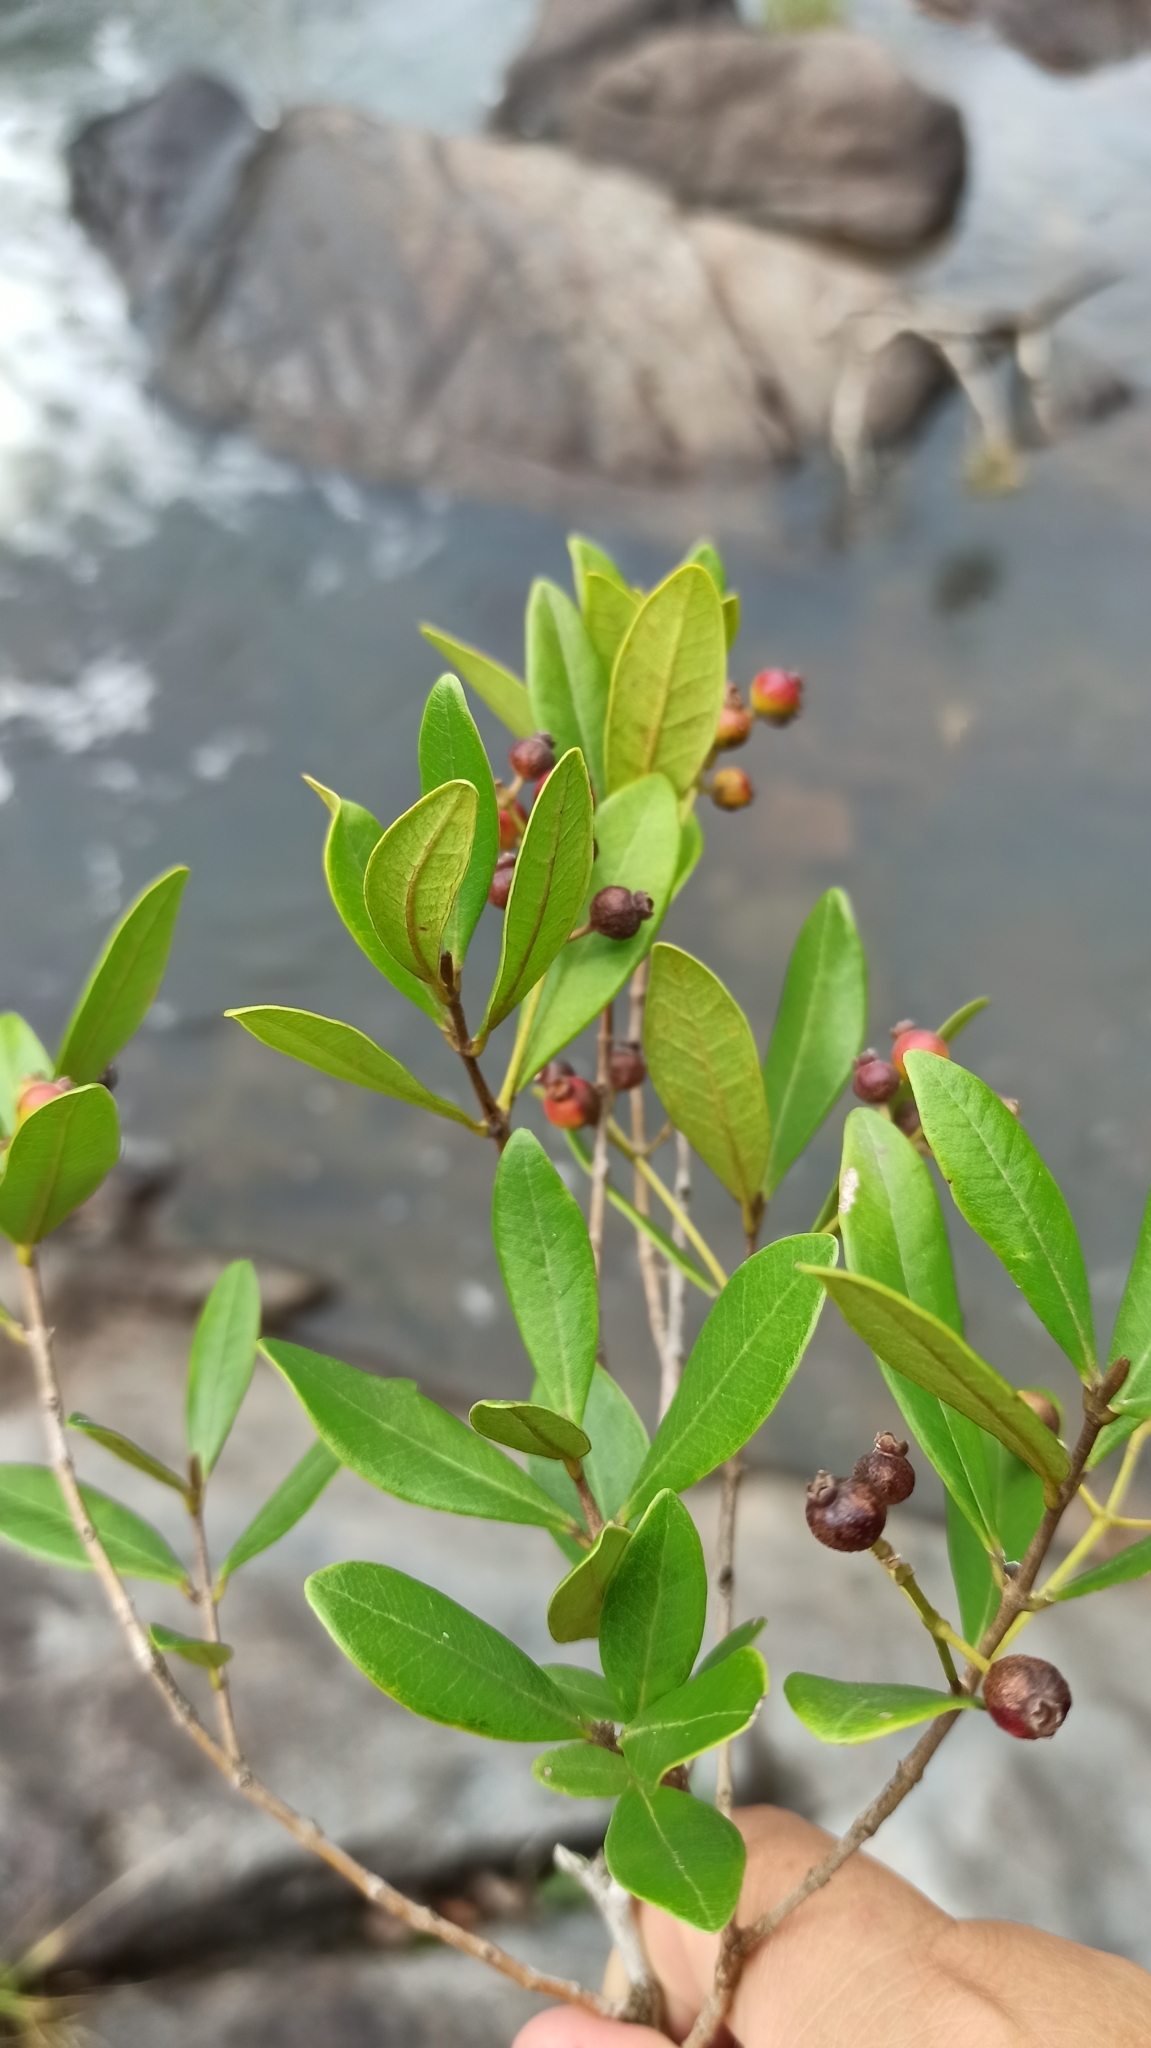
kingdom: Plantae
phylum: Tracheophyta
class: Magnoliopsida
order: Myrtales
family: Myrtaceae
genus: Myrcia
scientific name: Myrcia palustris
